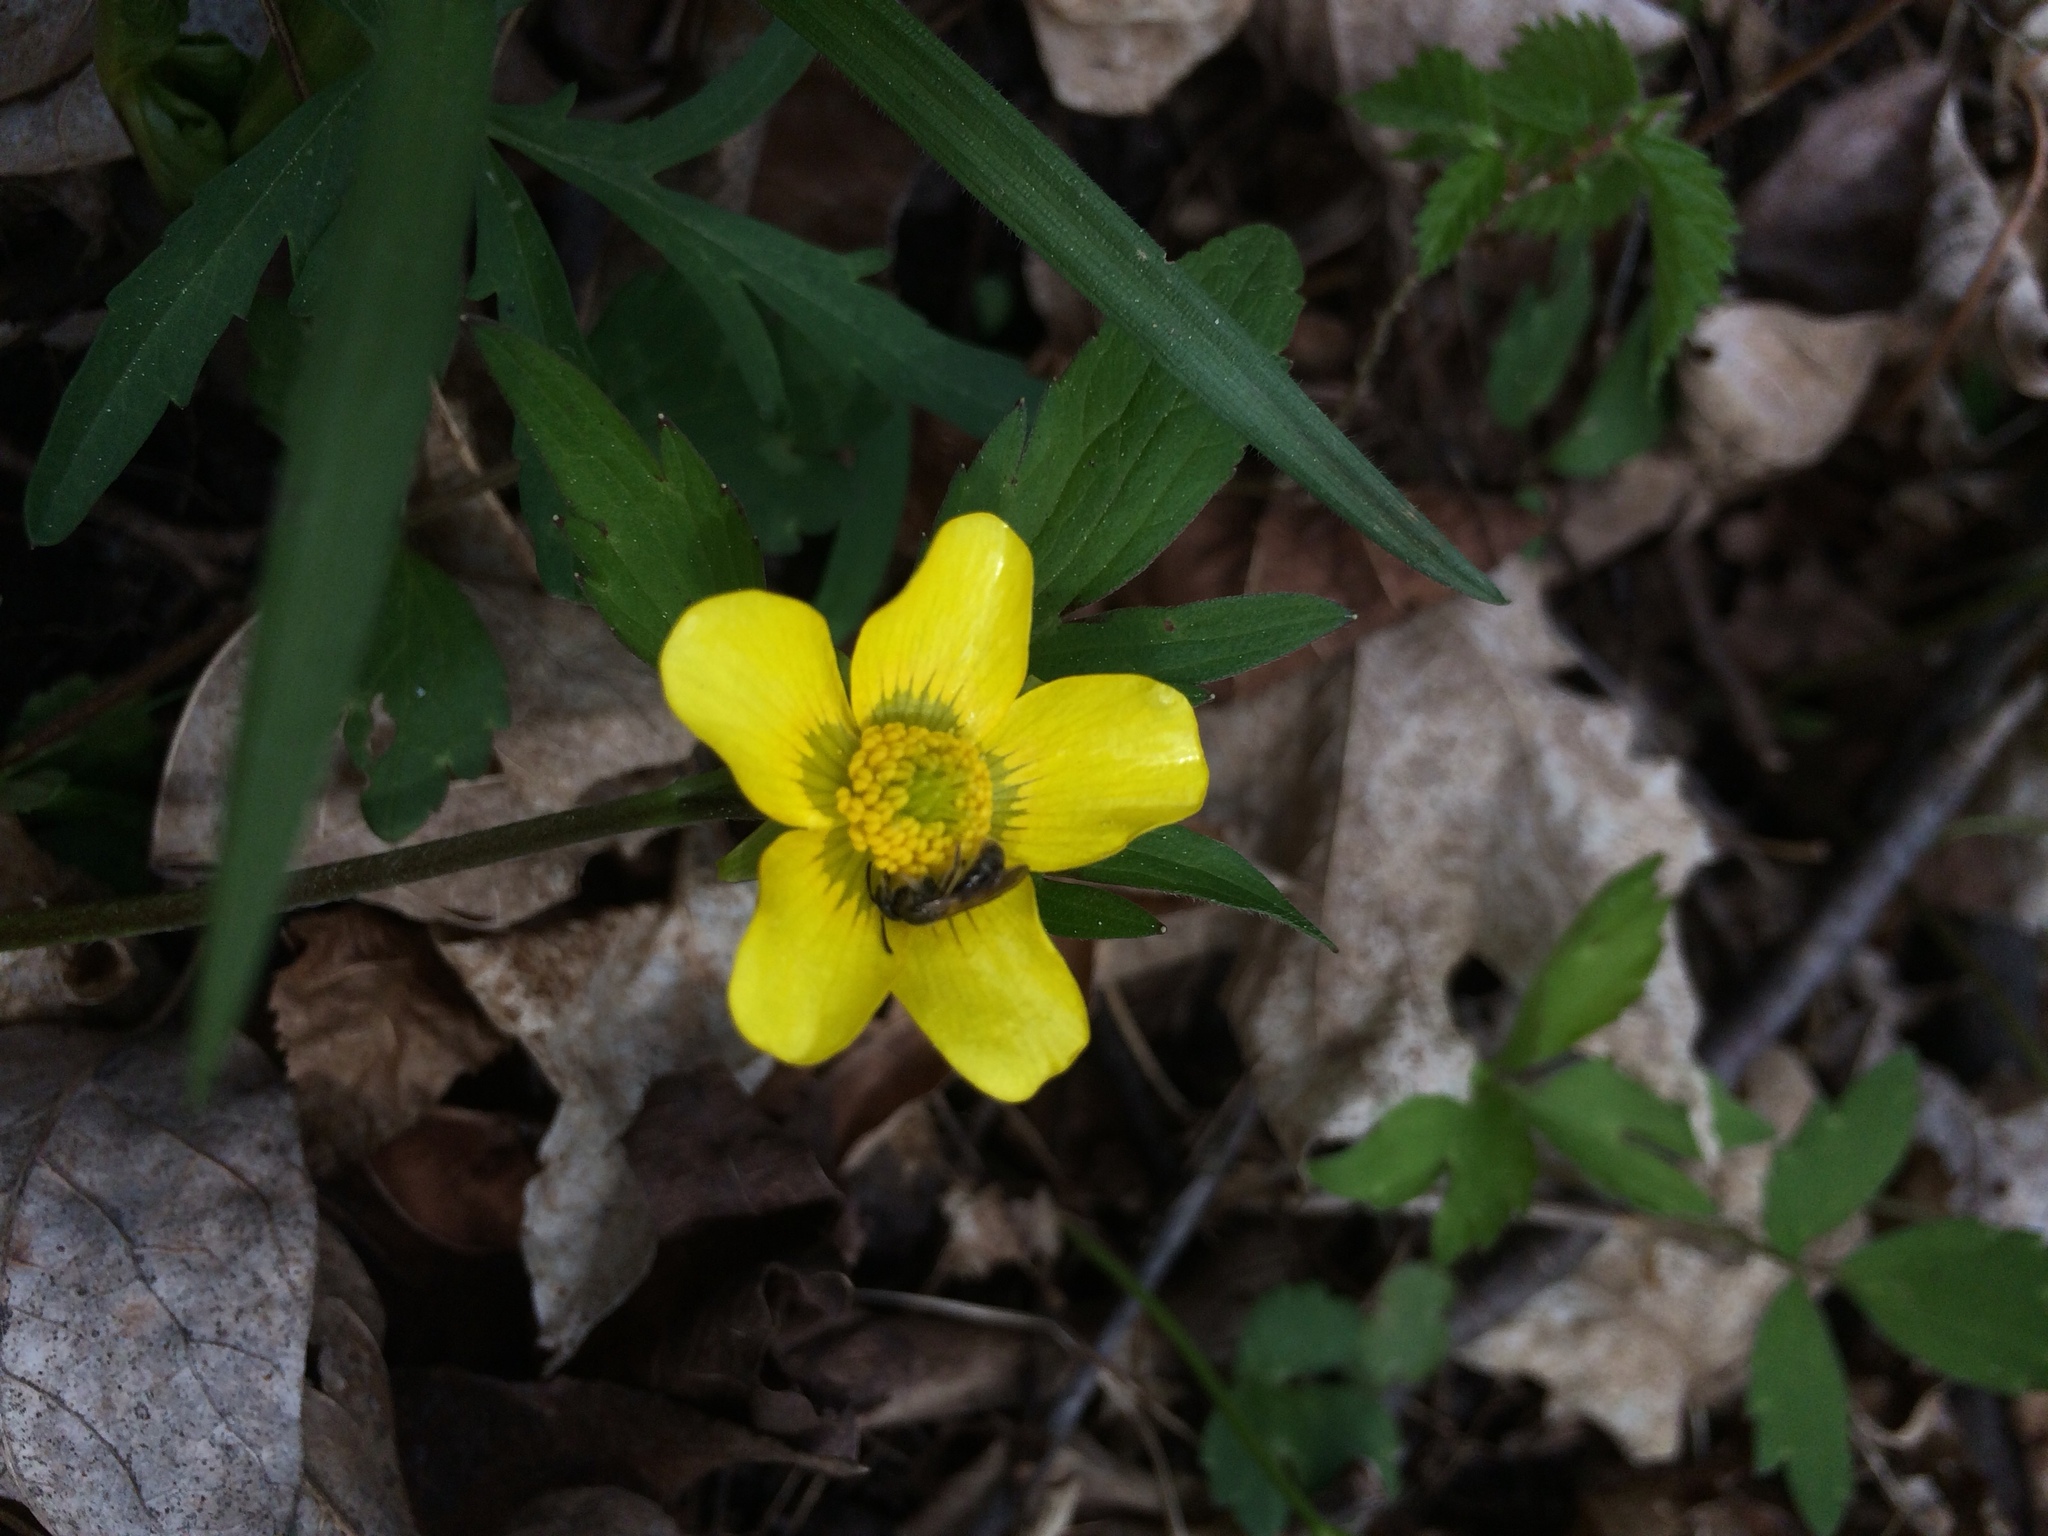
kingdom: Plantae
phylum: Tracheophyta
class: Magnoliopsida
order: Ranunculales
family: Ranunculaceae
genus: Ranunculus
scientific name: Ranunculus hispidus
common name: Bristly buttercup
